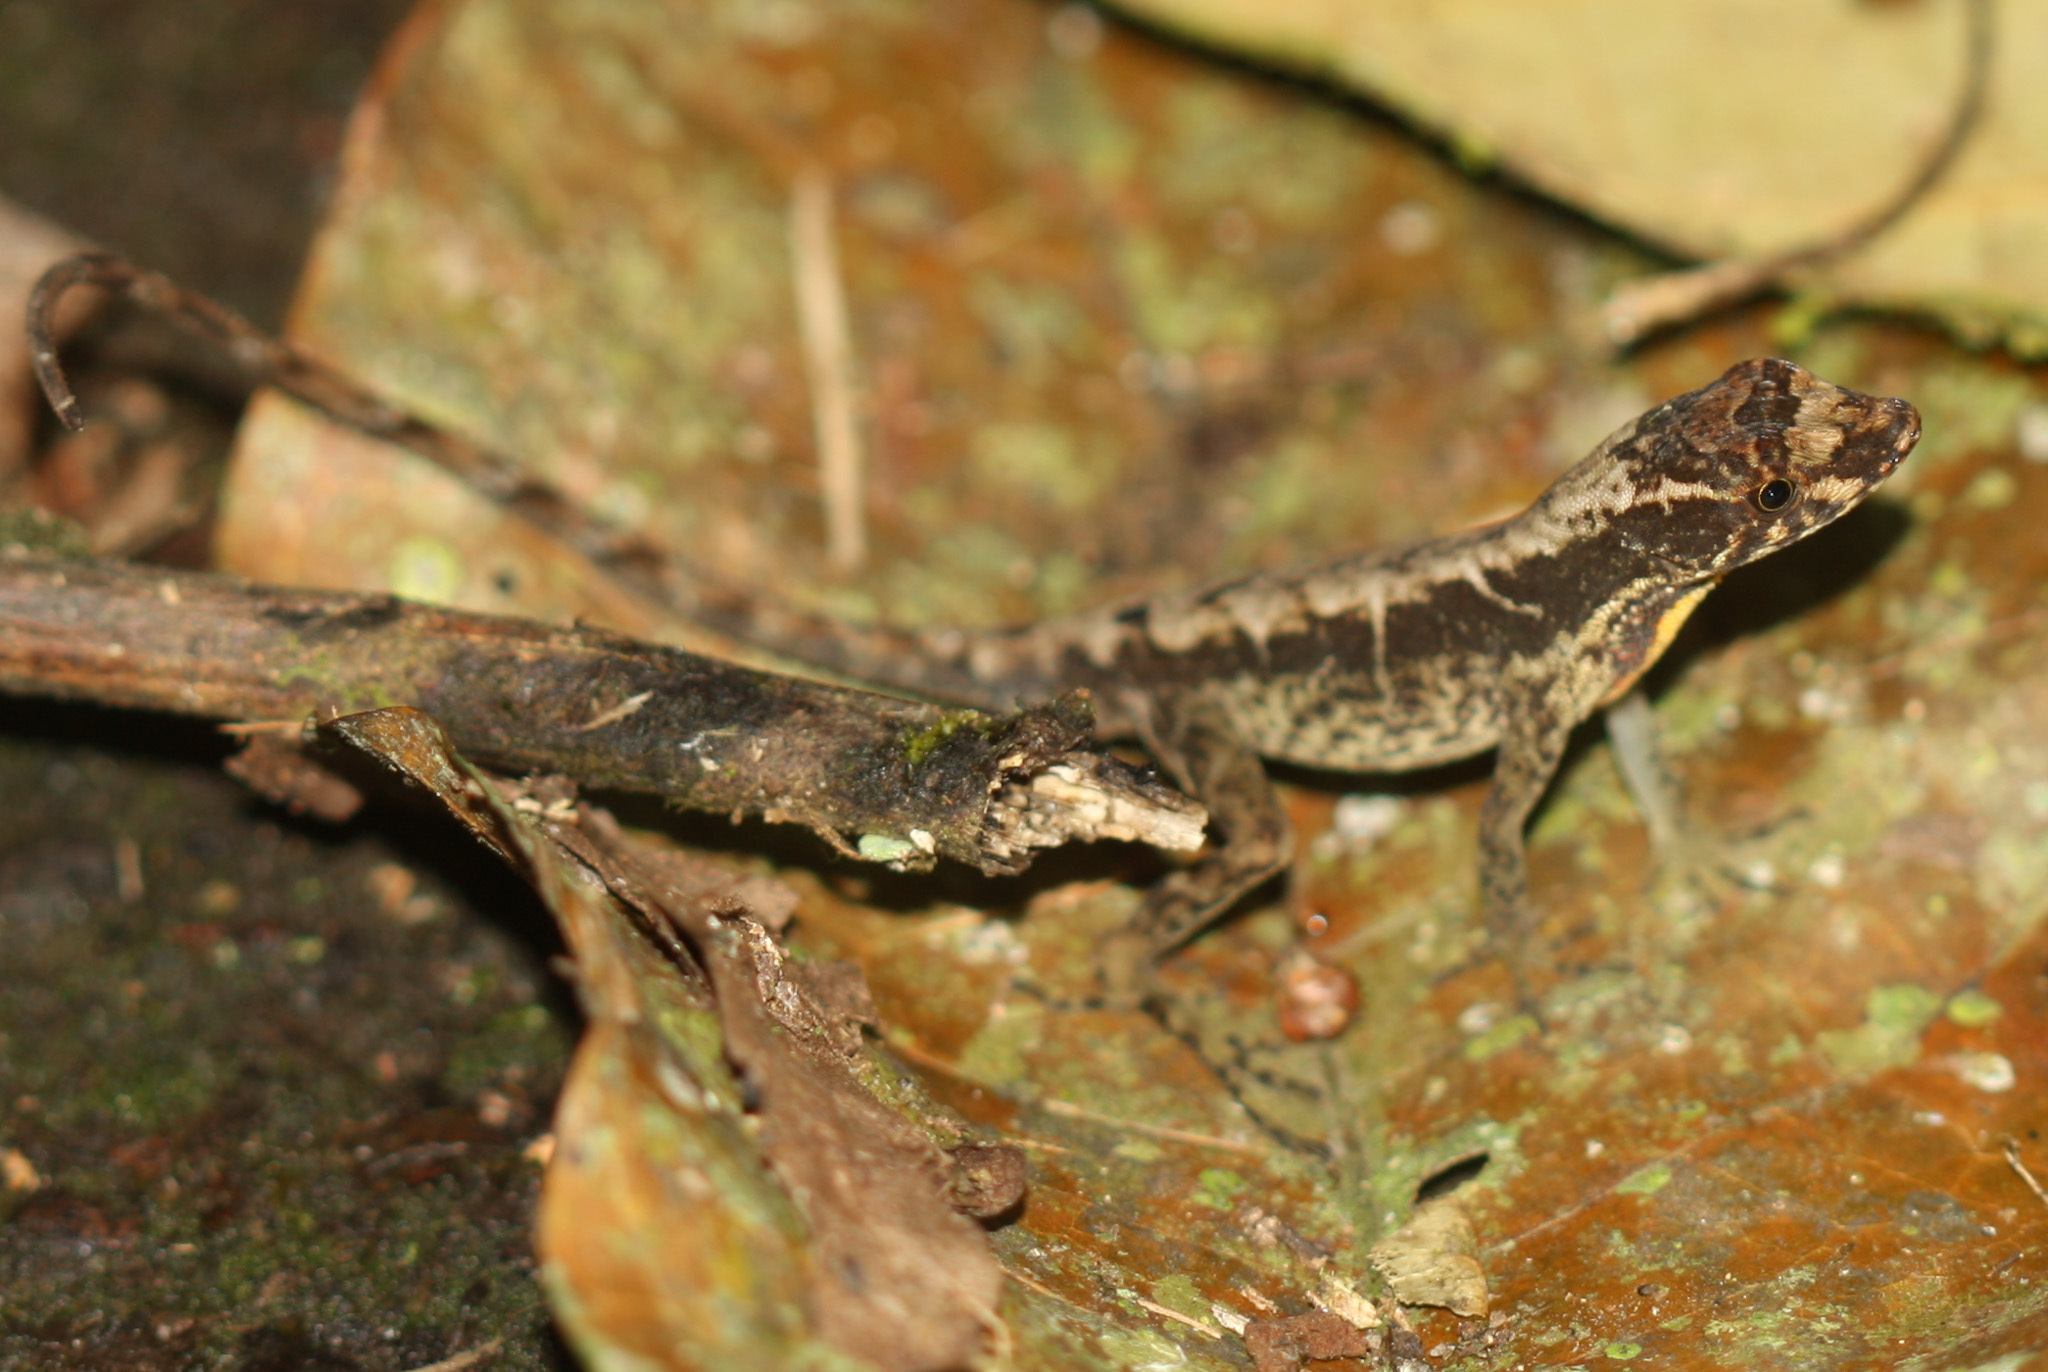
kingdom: Animalia
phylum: Chordata
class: Squamata
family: Dactyloidae
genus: Anolis
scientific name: Anolis humilis
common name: Humble anole
